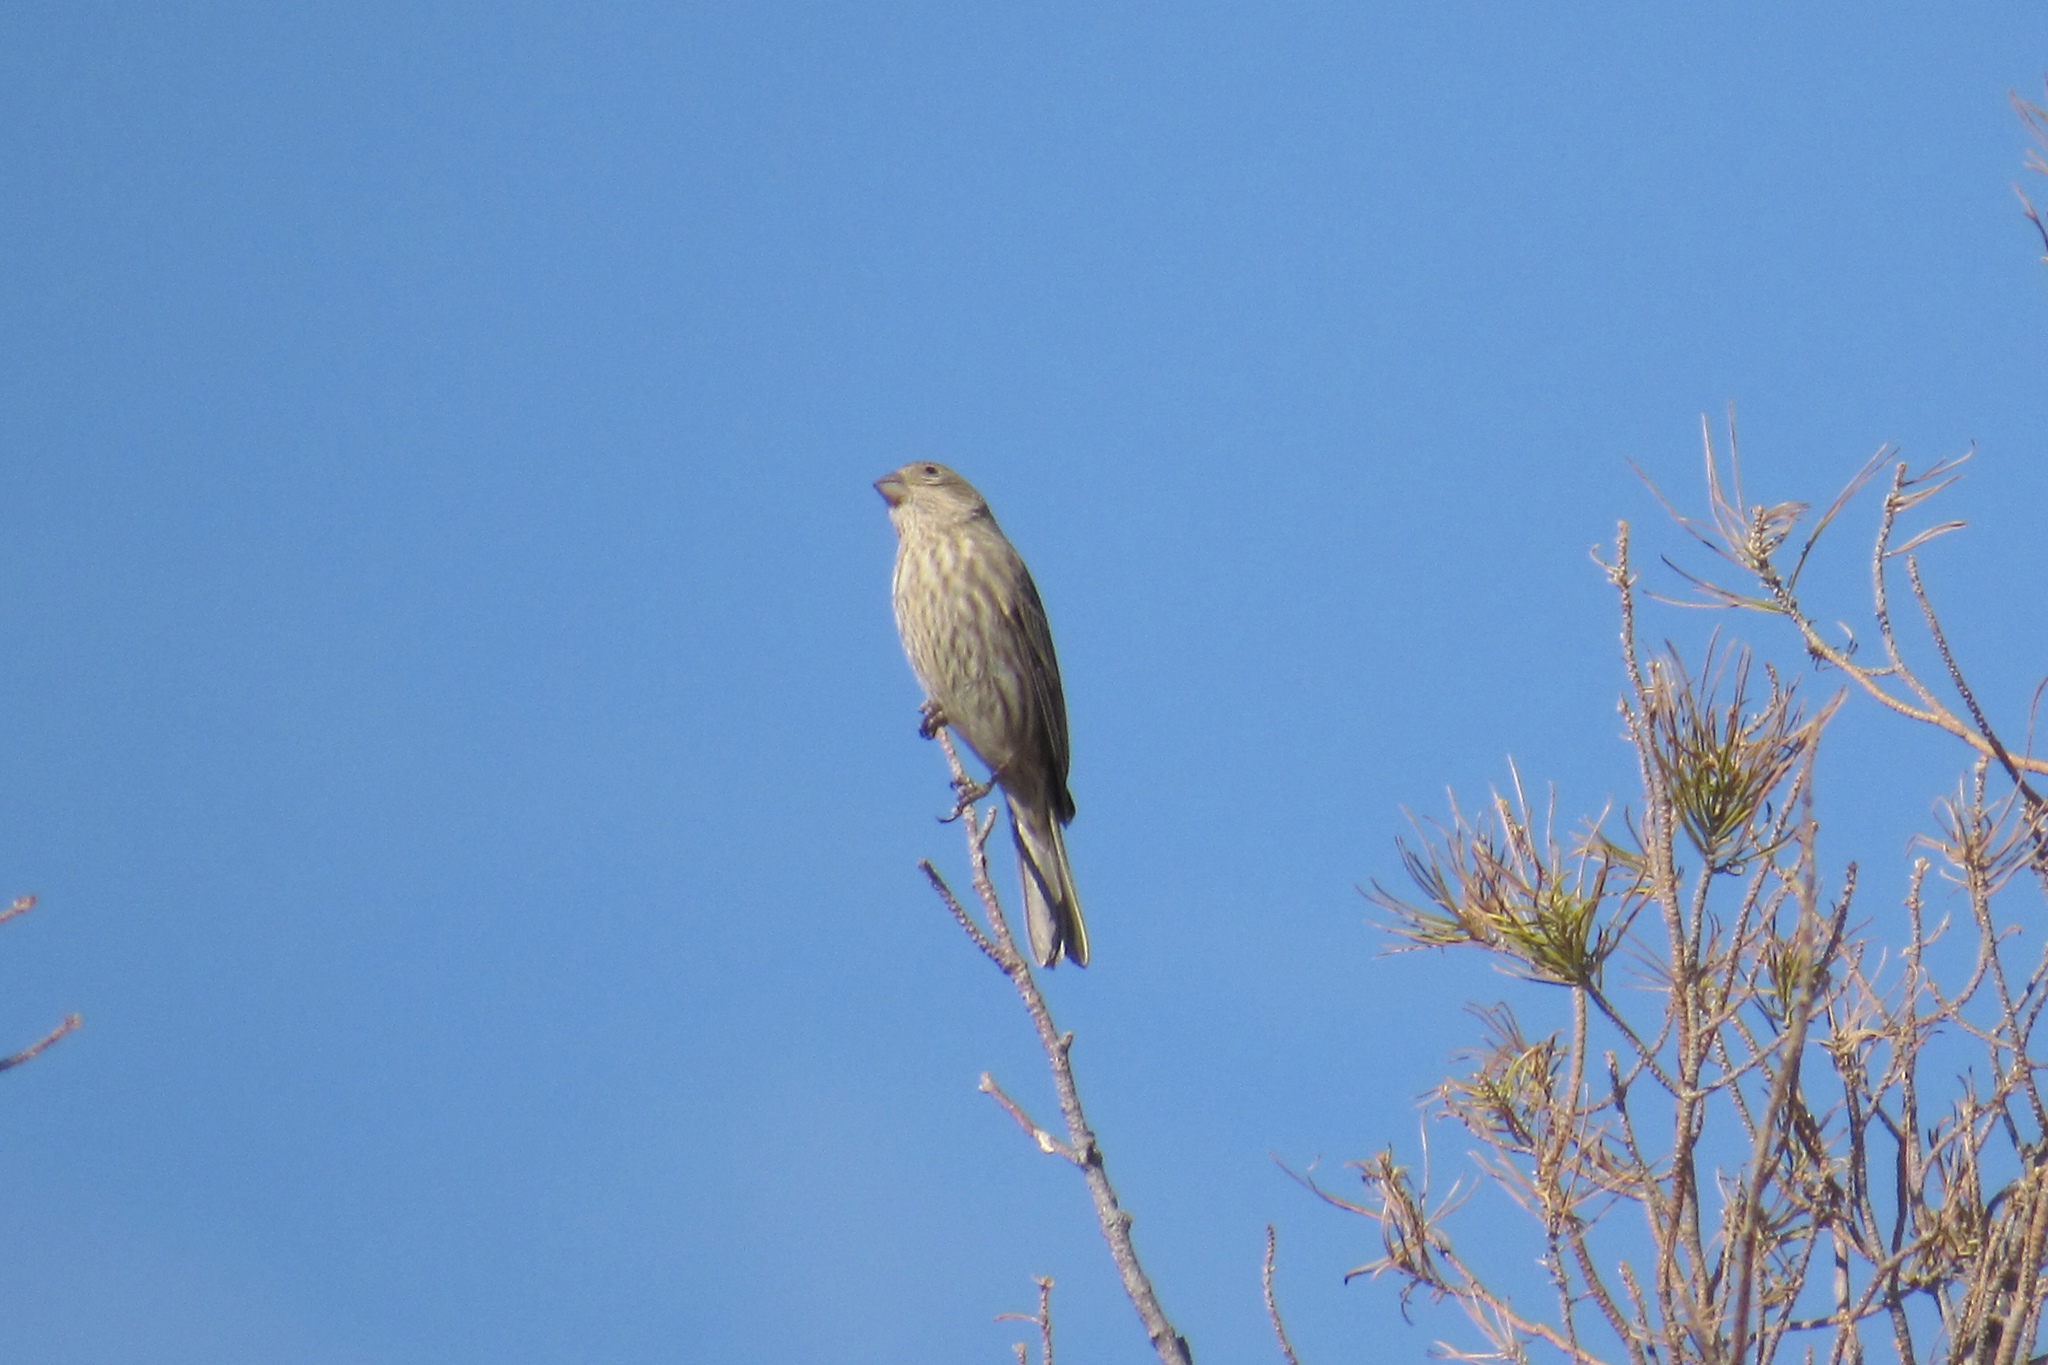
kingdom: Animalia
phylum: Chordata
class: Aves
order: Passeriformes
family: Fringillidae
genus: Haemorhous
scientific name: Haemorhous mexicanus
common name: House finch
